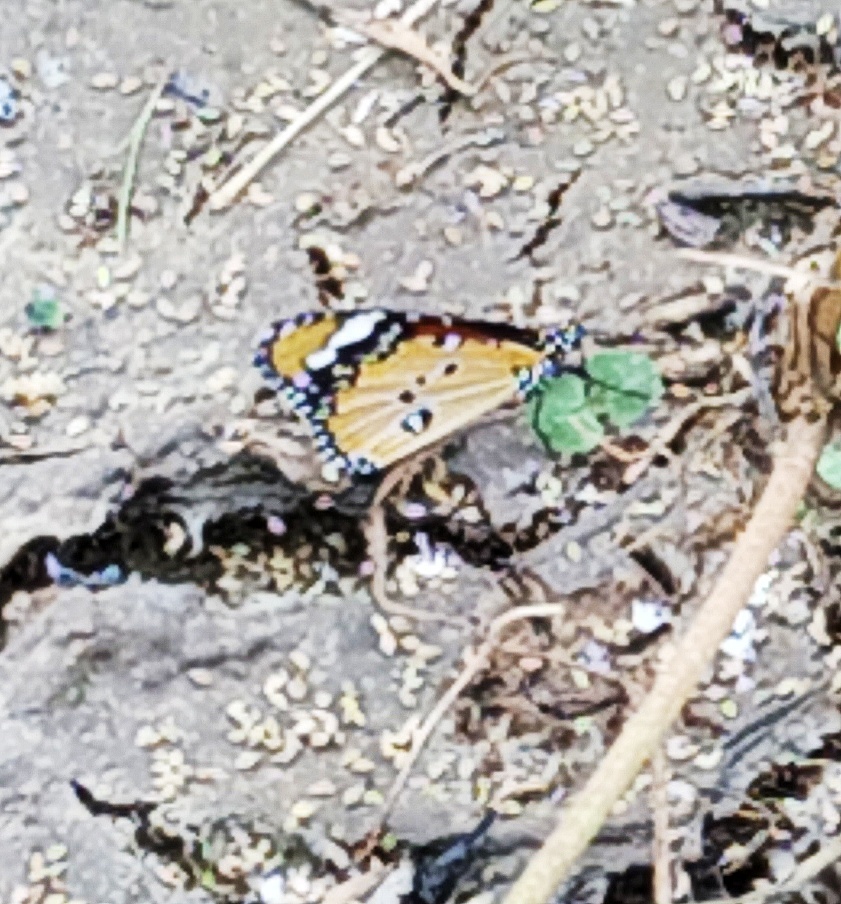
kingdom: Animalia
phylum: Arthropoda
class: Insecta
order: Lepidoptera
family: Nymphalidae
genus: Danaus
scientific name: Danaus chrysippus
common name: Plain tiger
